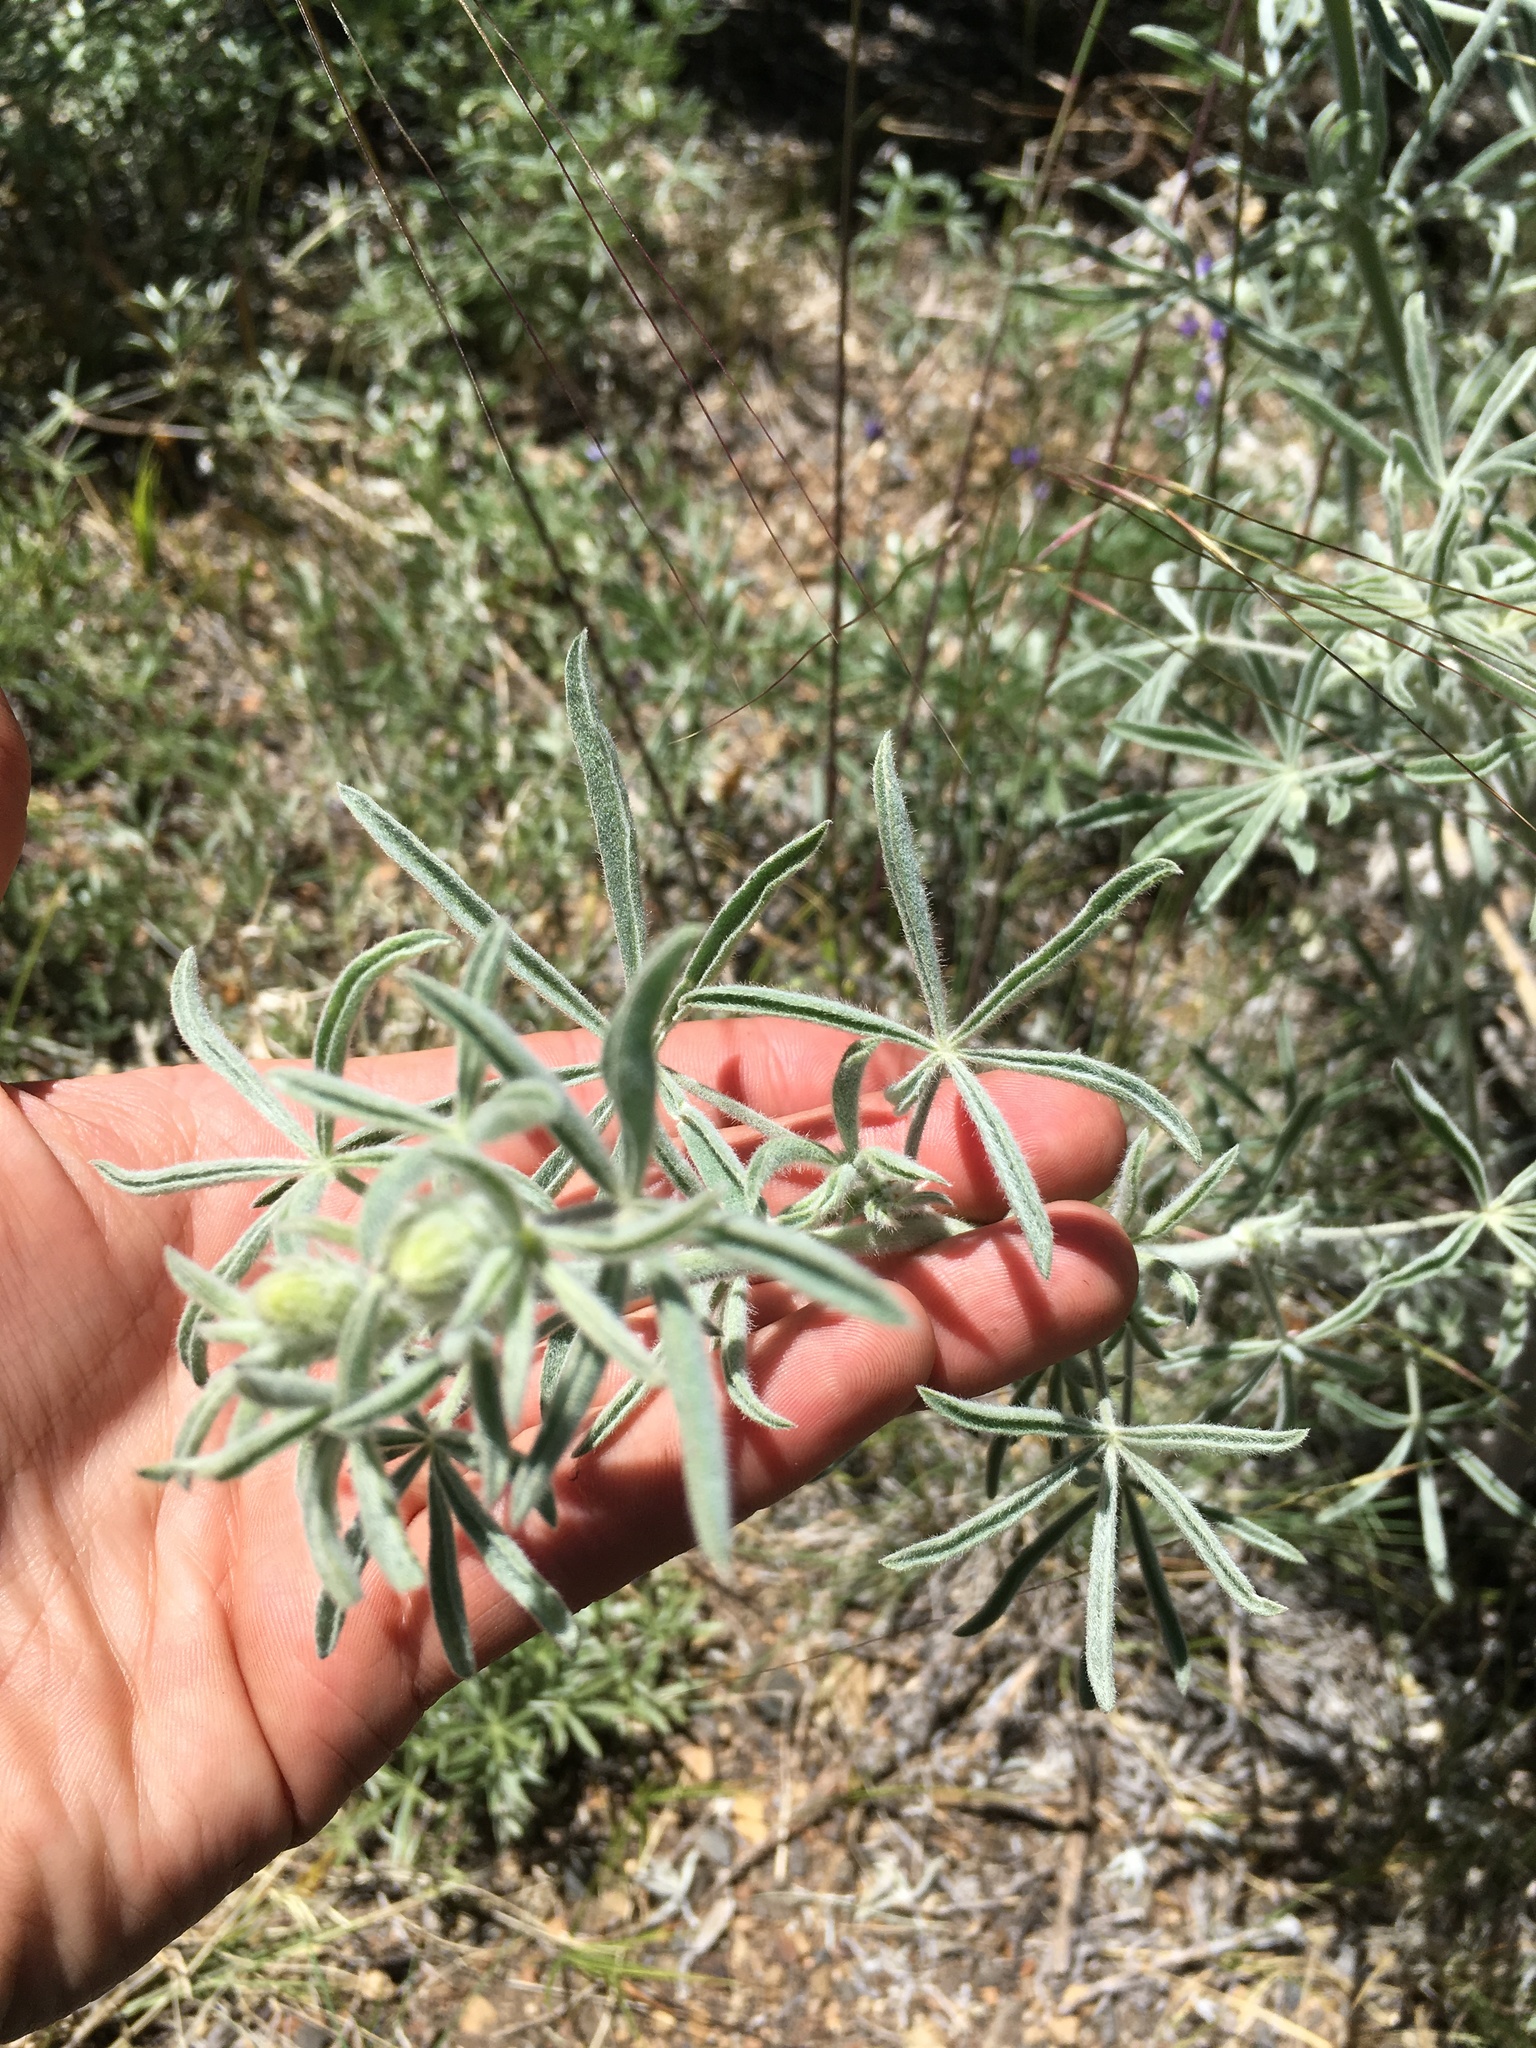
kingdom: Plantae
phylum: Tracheophyta
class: Magnoliopsida
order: Fabales
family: Fabaceae
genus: Lupinus
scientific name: Lupinus padre-crowleyi
